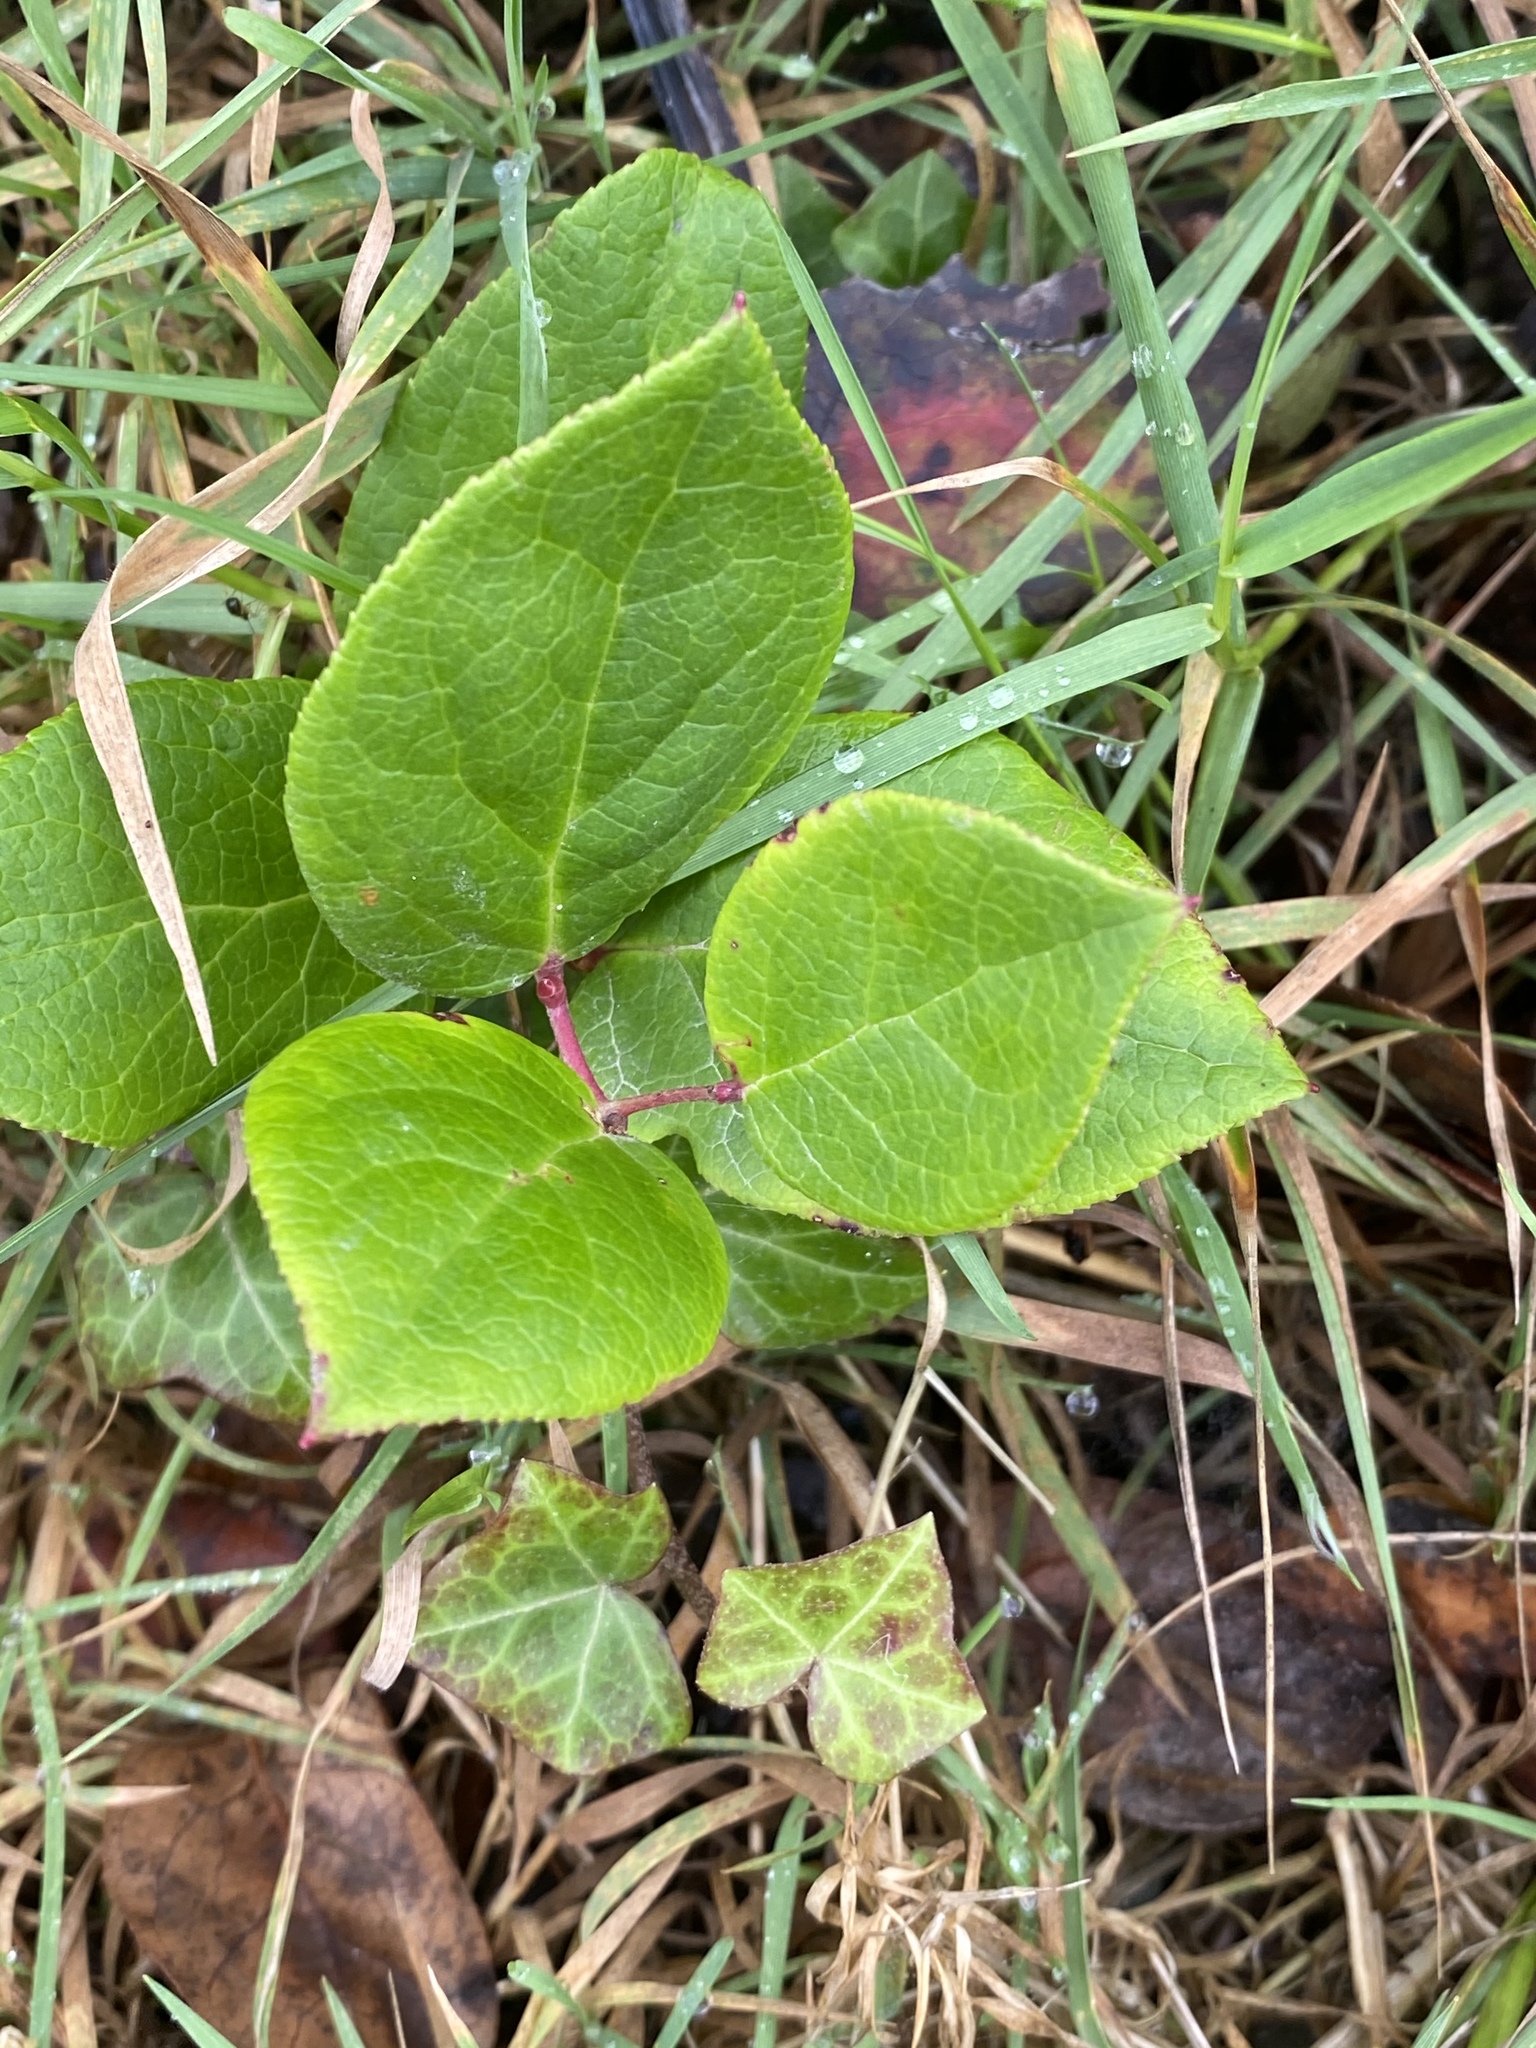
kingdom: Plantae
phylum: Tracheophyta
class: Magnoliopsida
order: Ericales
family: Ericaceae
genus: Gaultheria
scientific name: Gaultheria shallon
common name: Shallon
